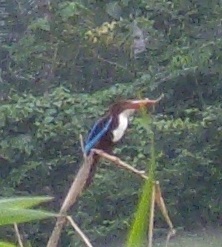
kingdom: Animalia
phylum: Chordata
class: Aves
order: Coraciiformes
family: Alcedinidae
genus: Halcyon
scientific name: Halcyon smyrnensis
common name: White-throated kingfisher
